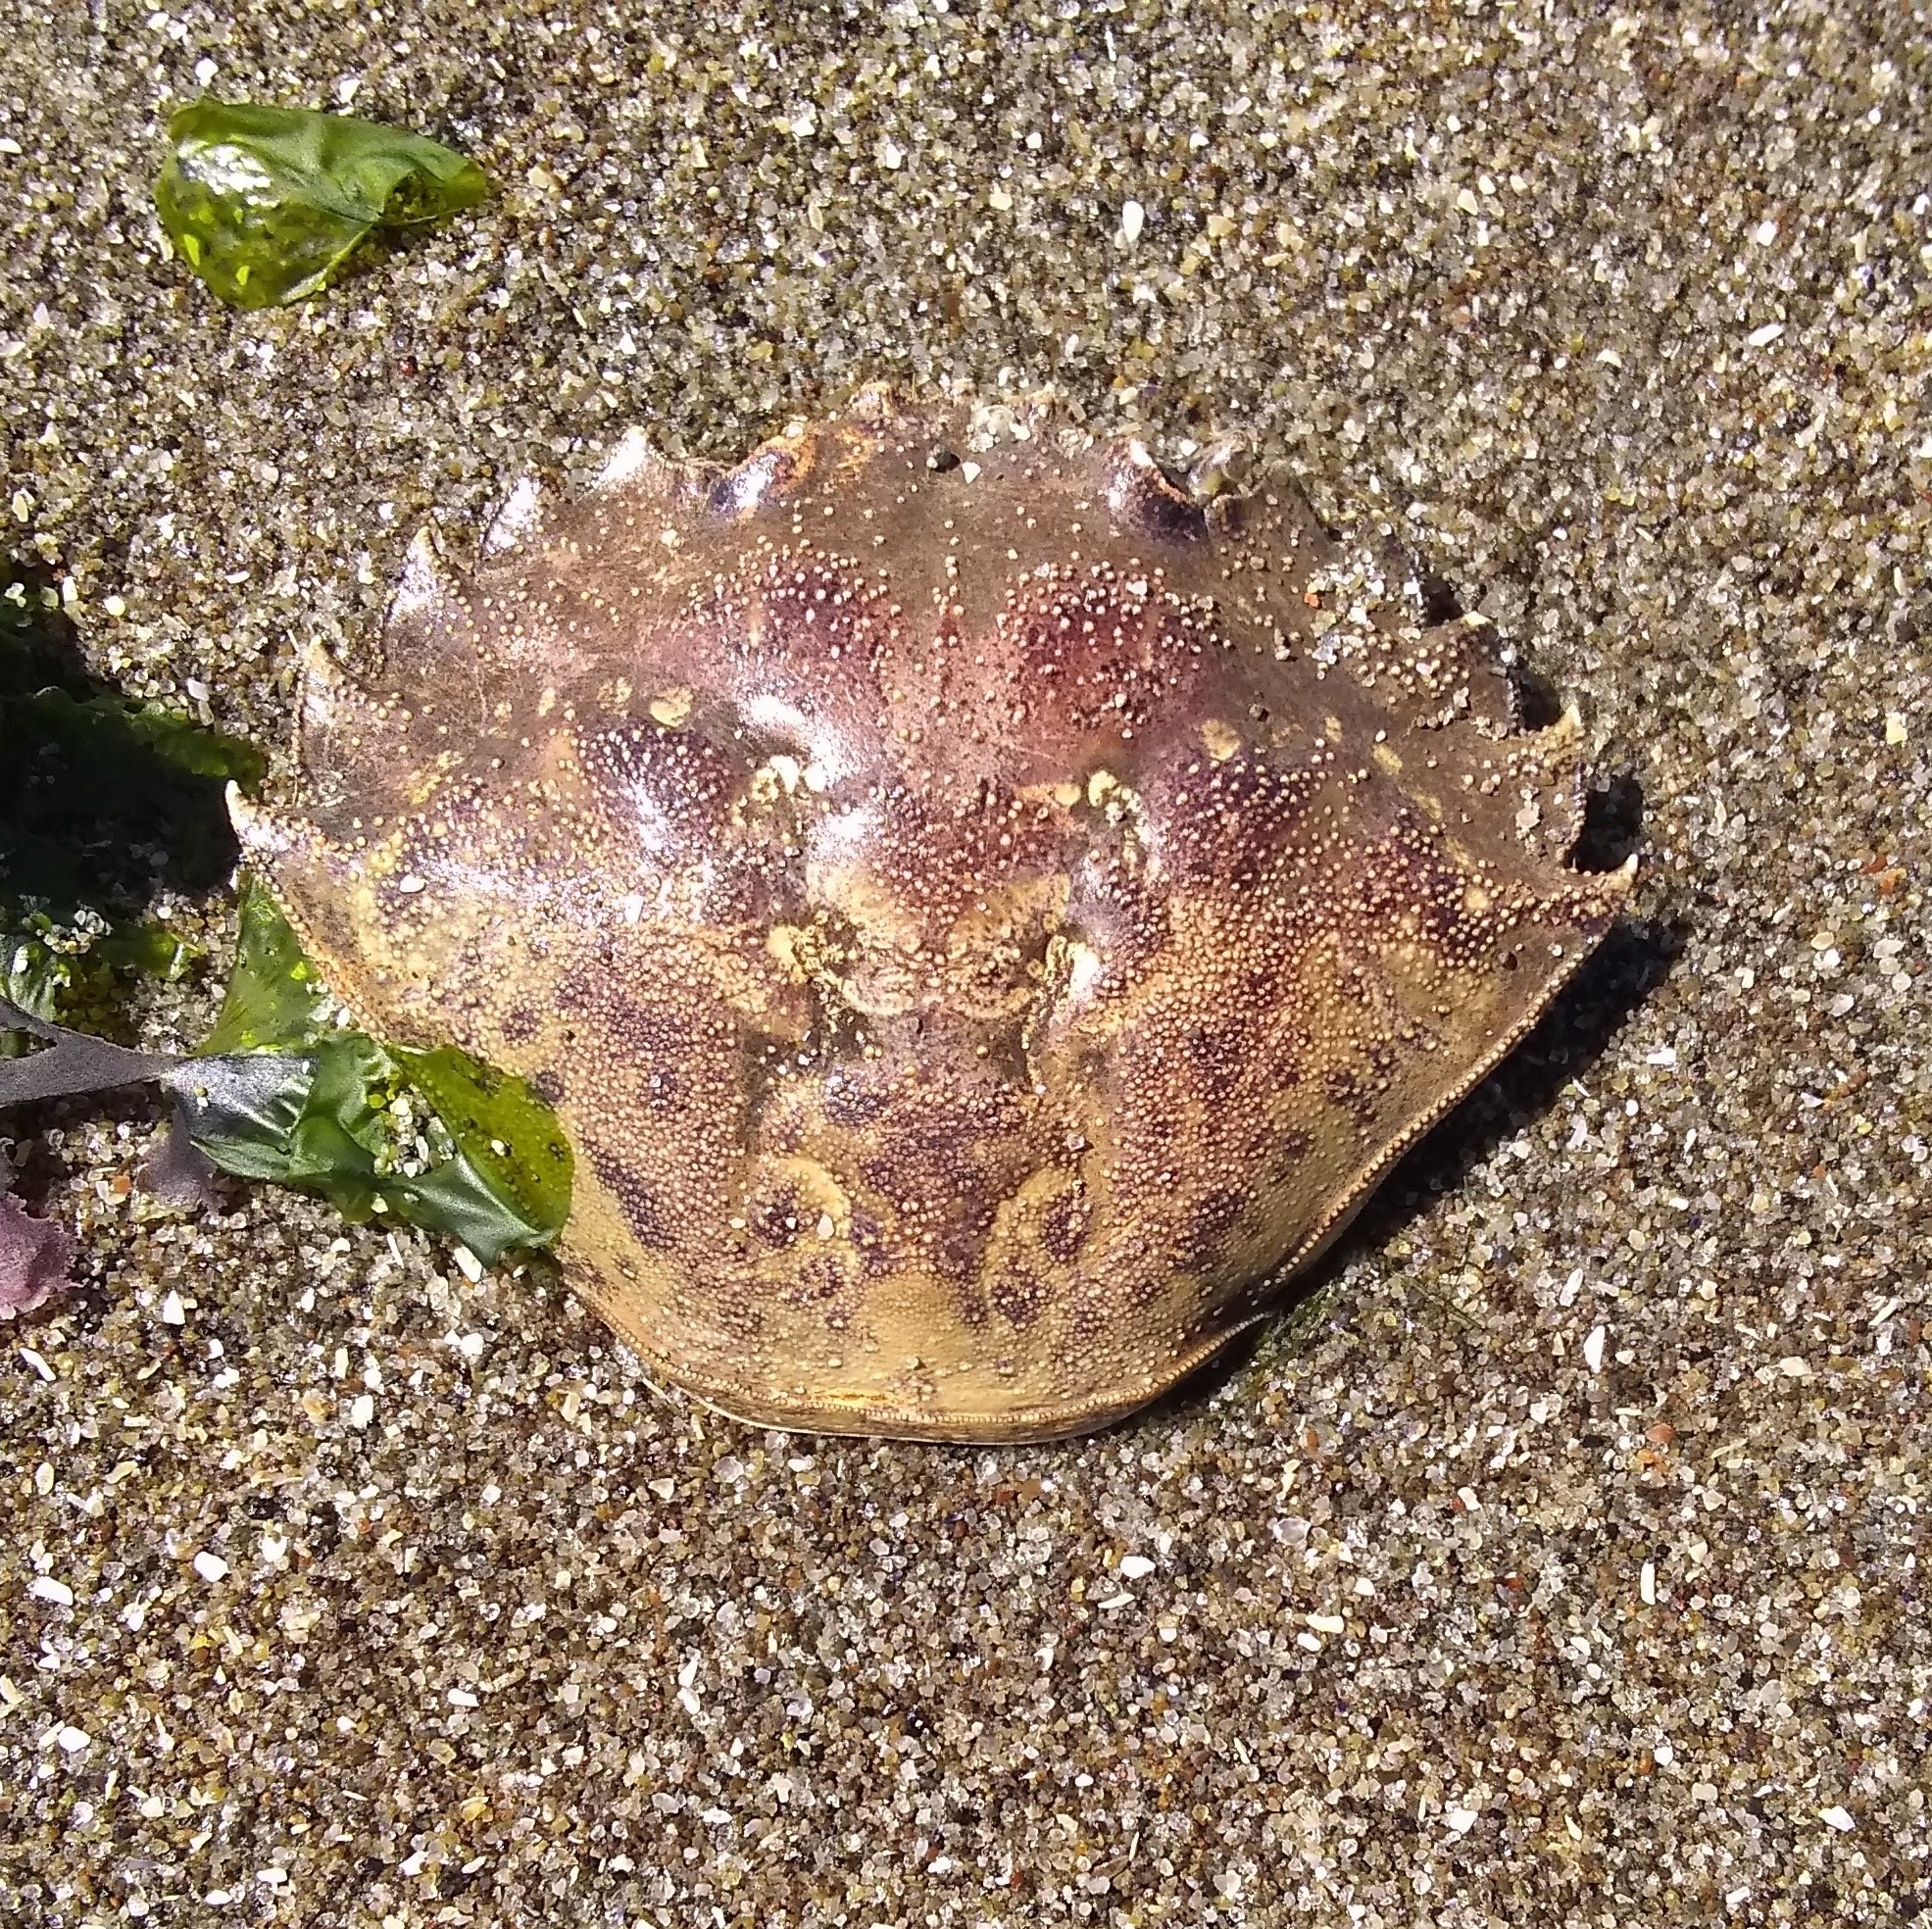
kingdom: Animalia
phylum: Arthropoda
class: Malacostraca
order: Decapoda
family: Carcinidae
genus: Carcinus
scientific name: Carcinus maenas
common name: European green crab
